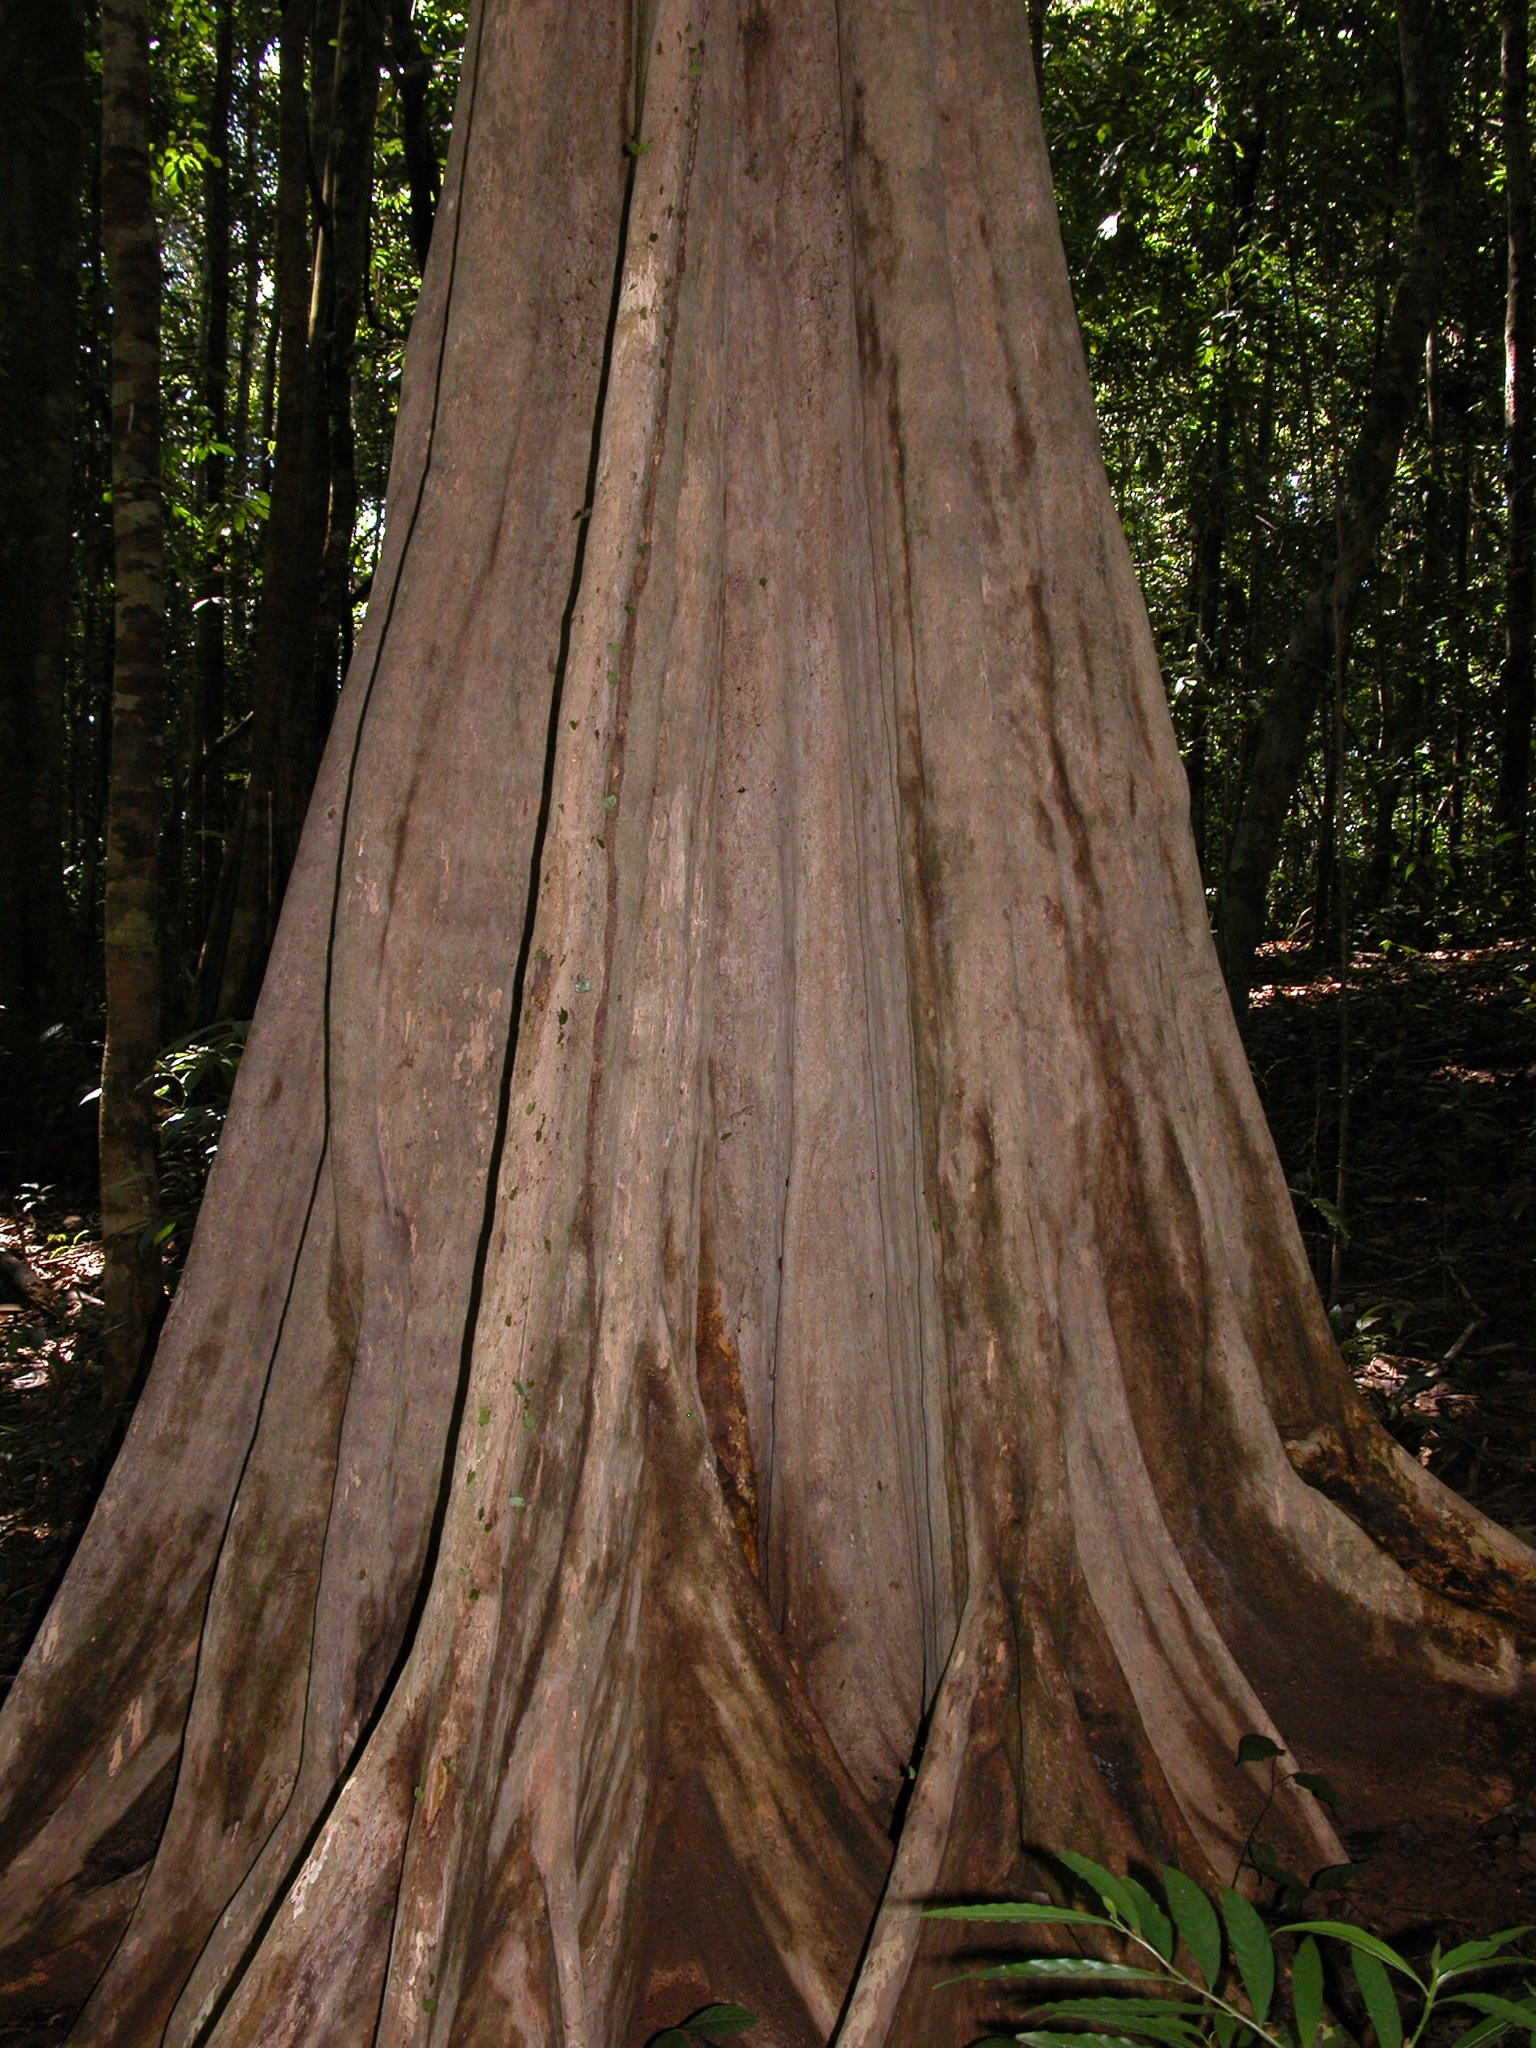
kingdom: Plantae
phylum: Tracheophyta
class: Magnoliopsida
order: Gentianales
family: Rubiaceae
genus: Chimarrhis
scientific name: Chimarrhis latifolia
